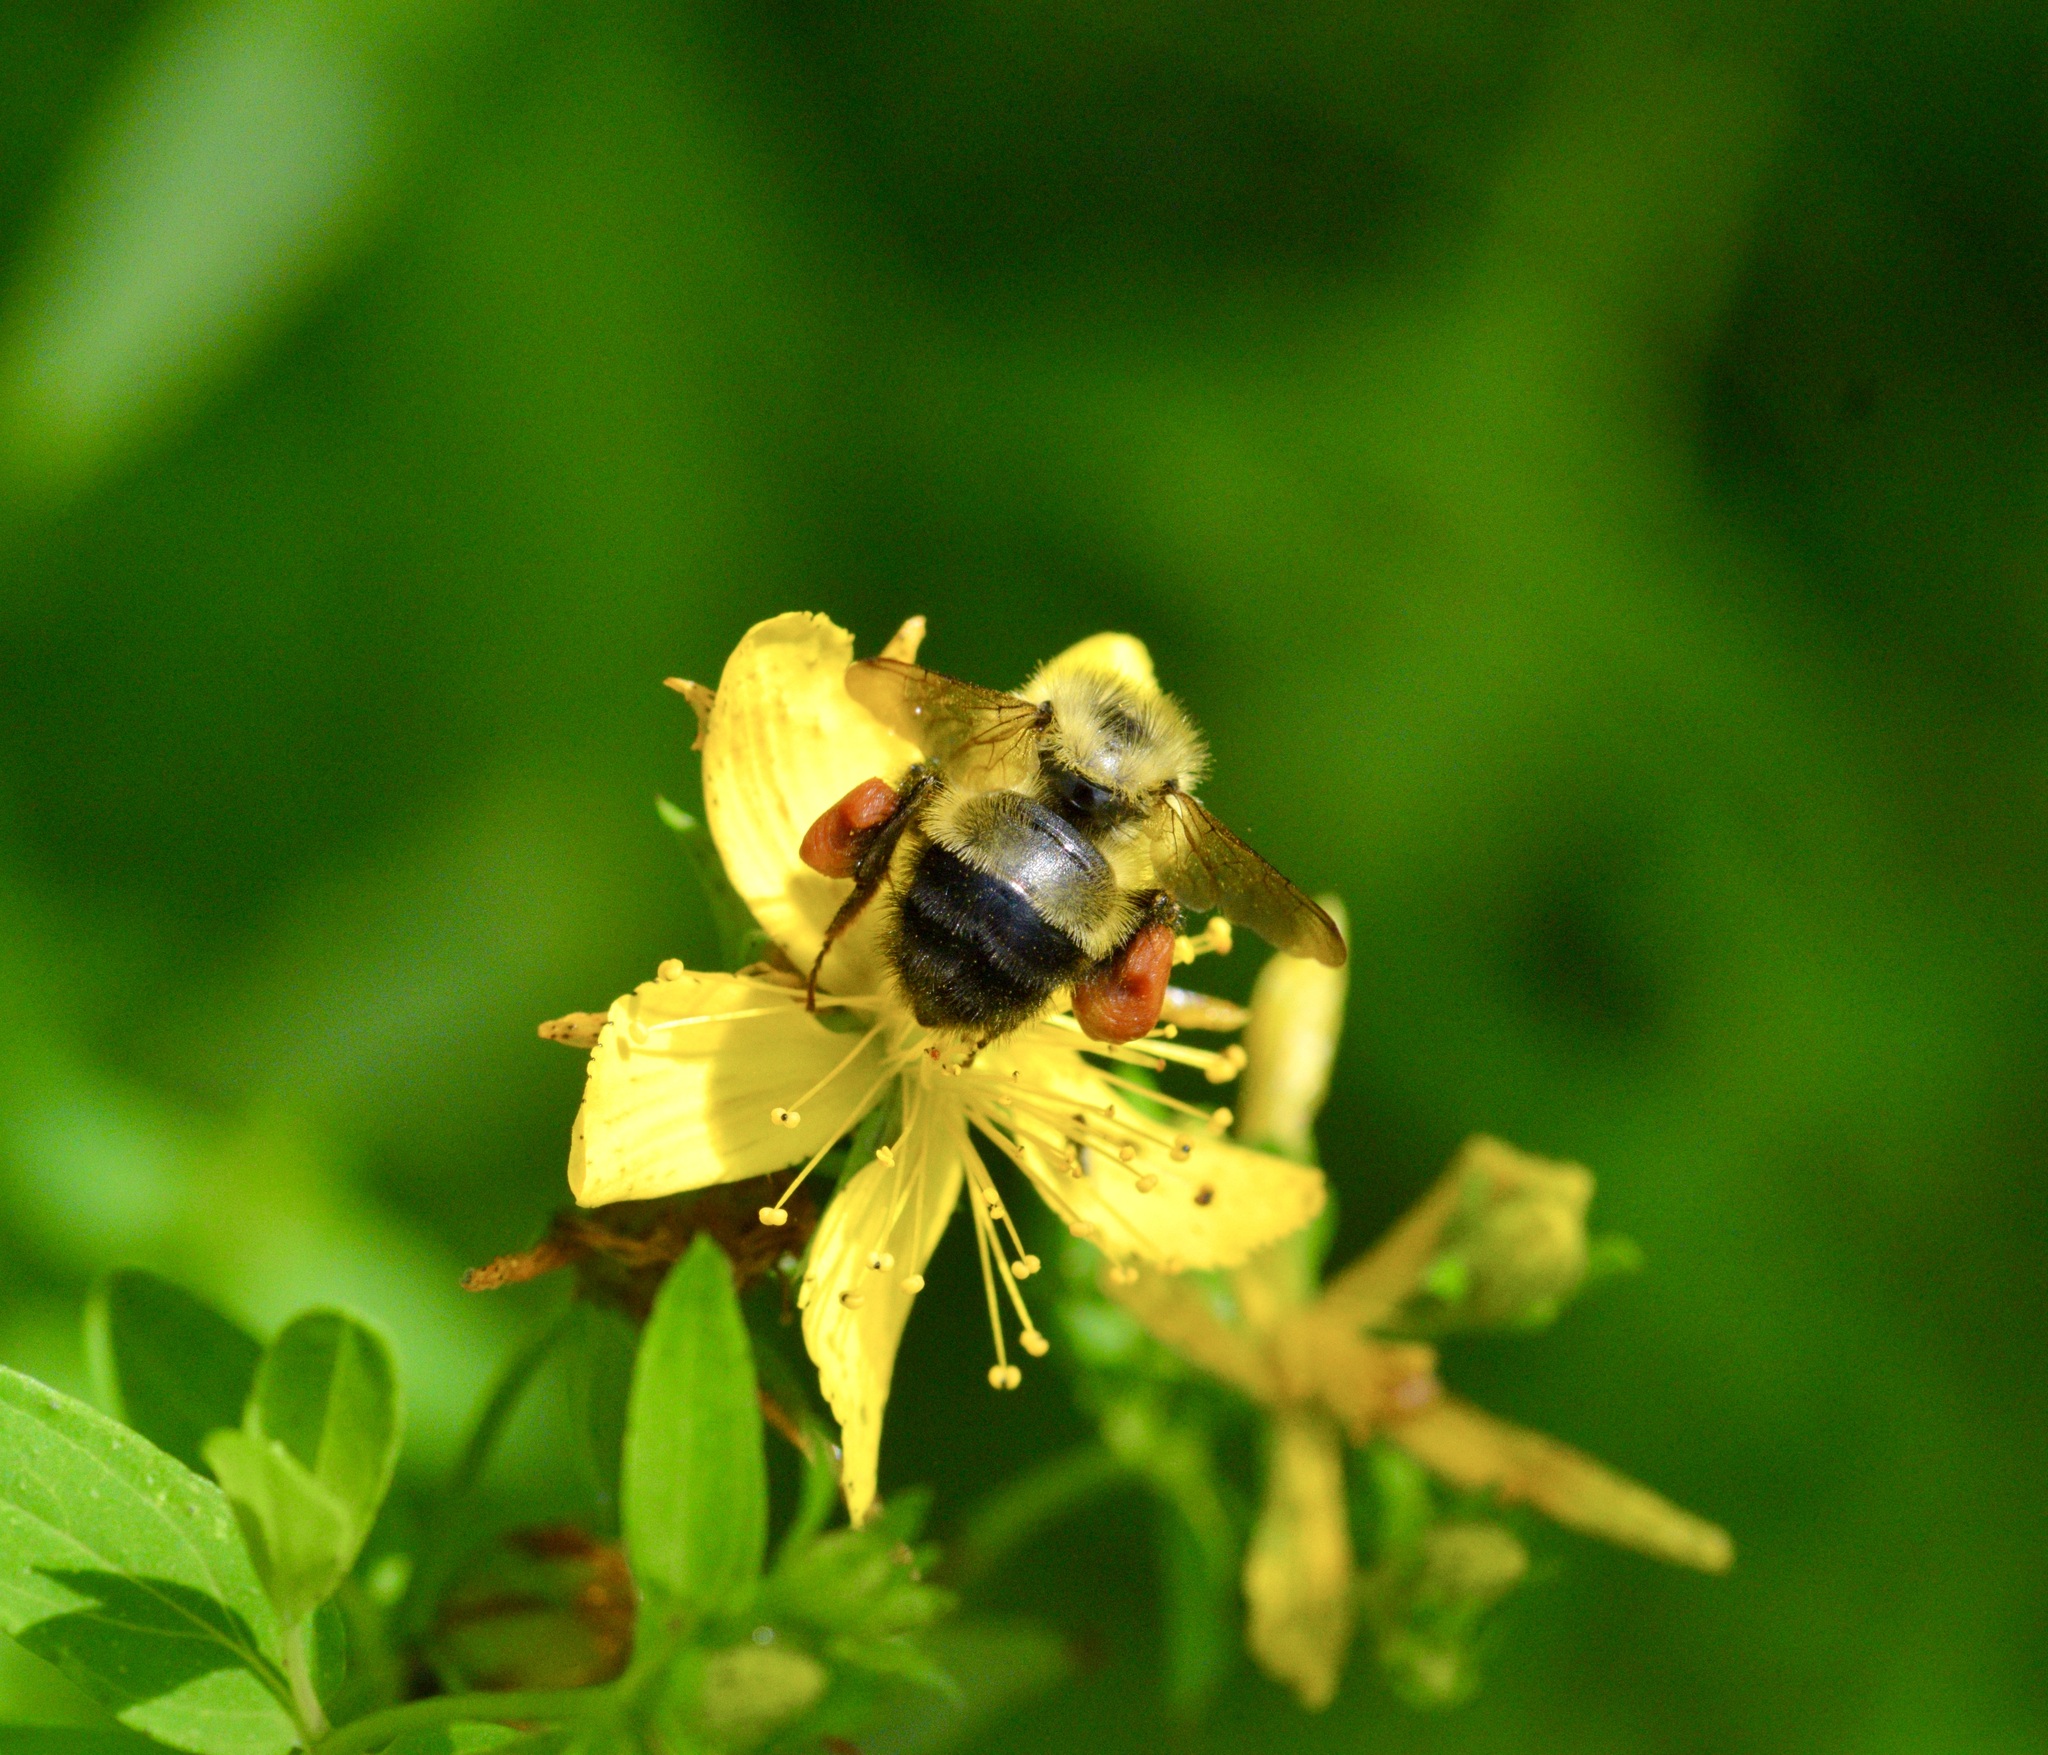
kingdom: Animalia
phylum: Arthropoda
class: Insecta
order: Hymenoptera
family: Apidae
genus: Pyrobombus
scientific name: Pyrobombus
